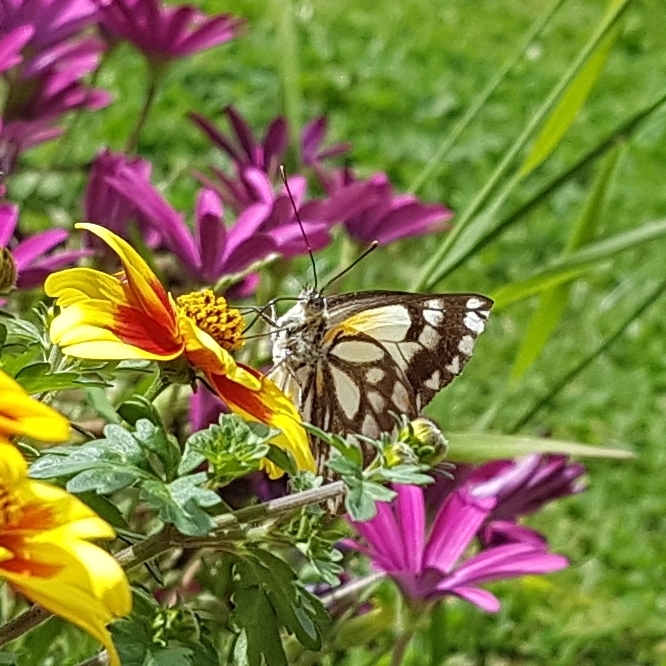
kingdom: Animalia
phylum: Arthropoda
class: Insecta
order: Lepidoptera
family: Pieridae
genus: Belenois
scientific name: Belenois java
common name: Caper white
